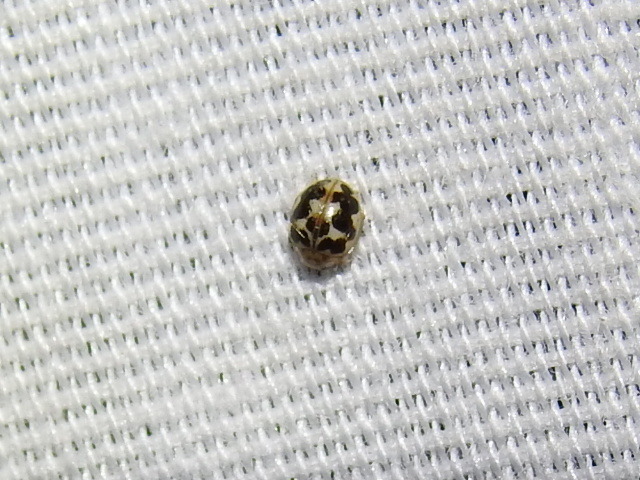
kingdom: Animalia
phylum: Arthropoda
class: Insecta
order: Coleoptera
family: Coccinellidae
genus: Psyllobora
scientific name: Psyllobora renifer
